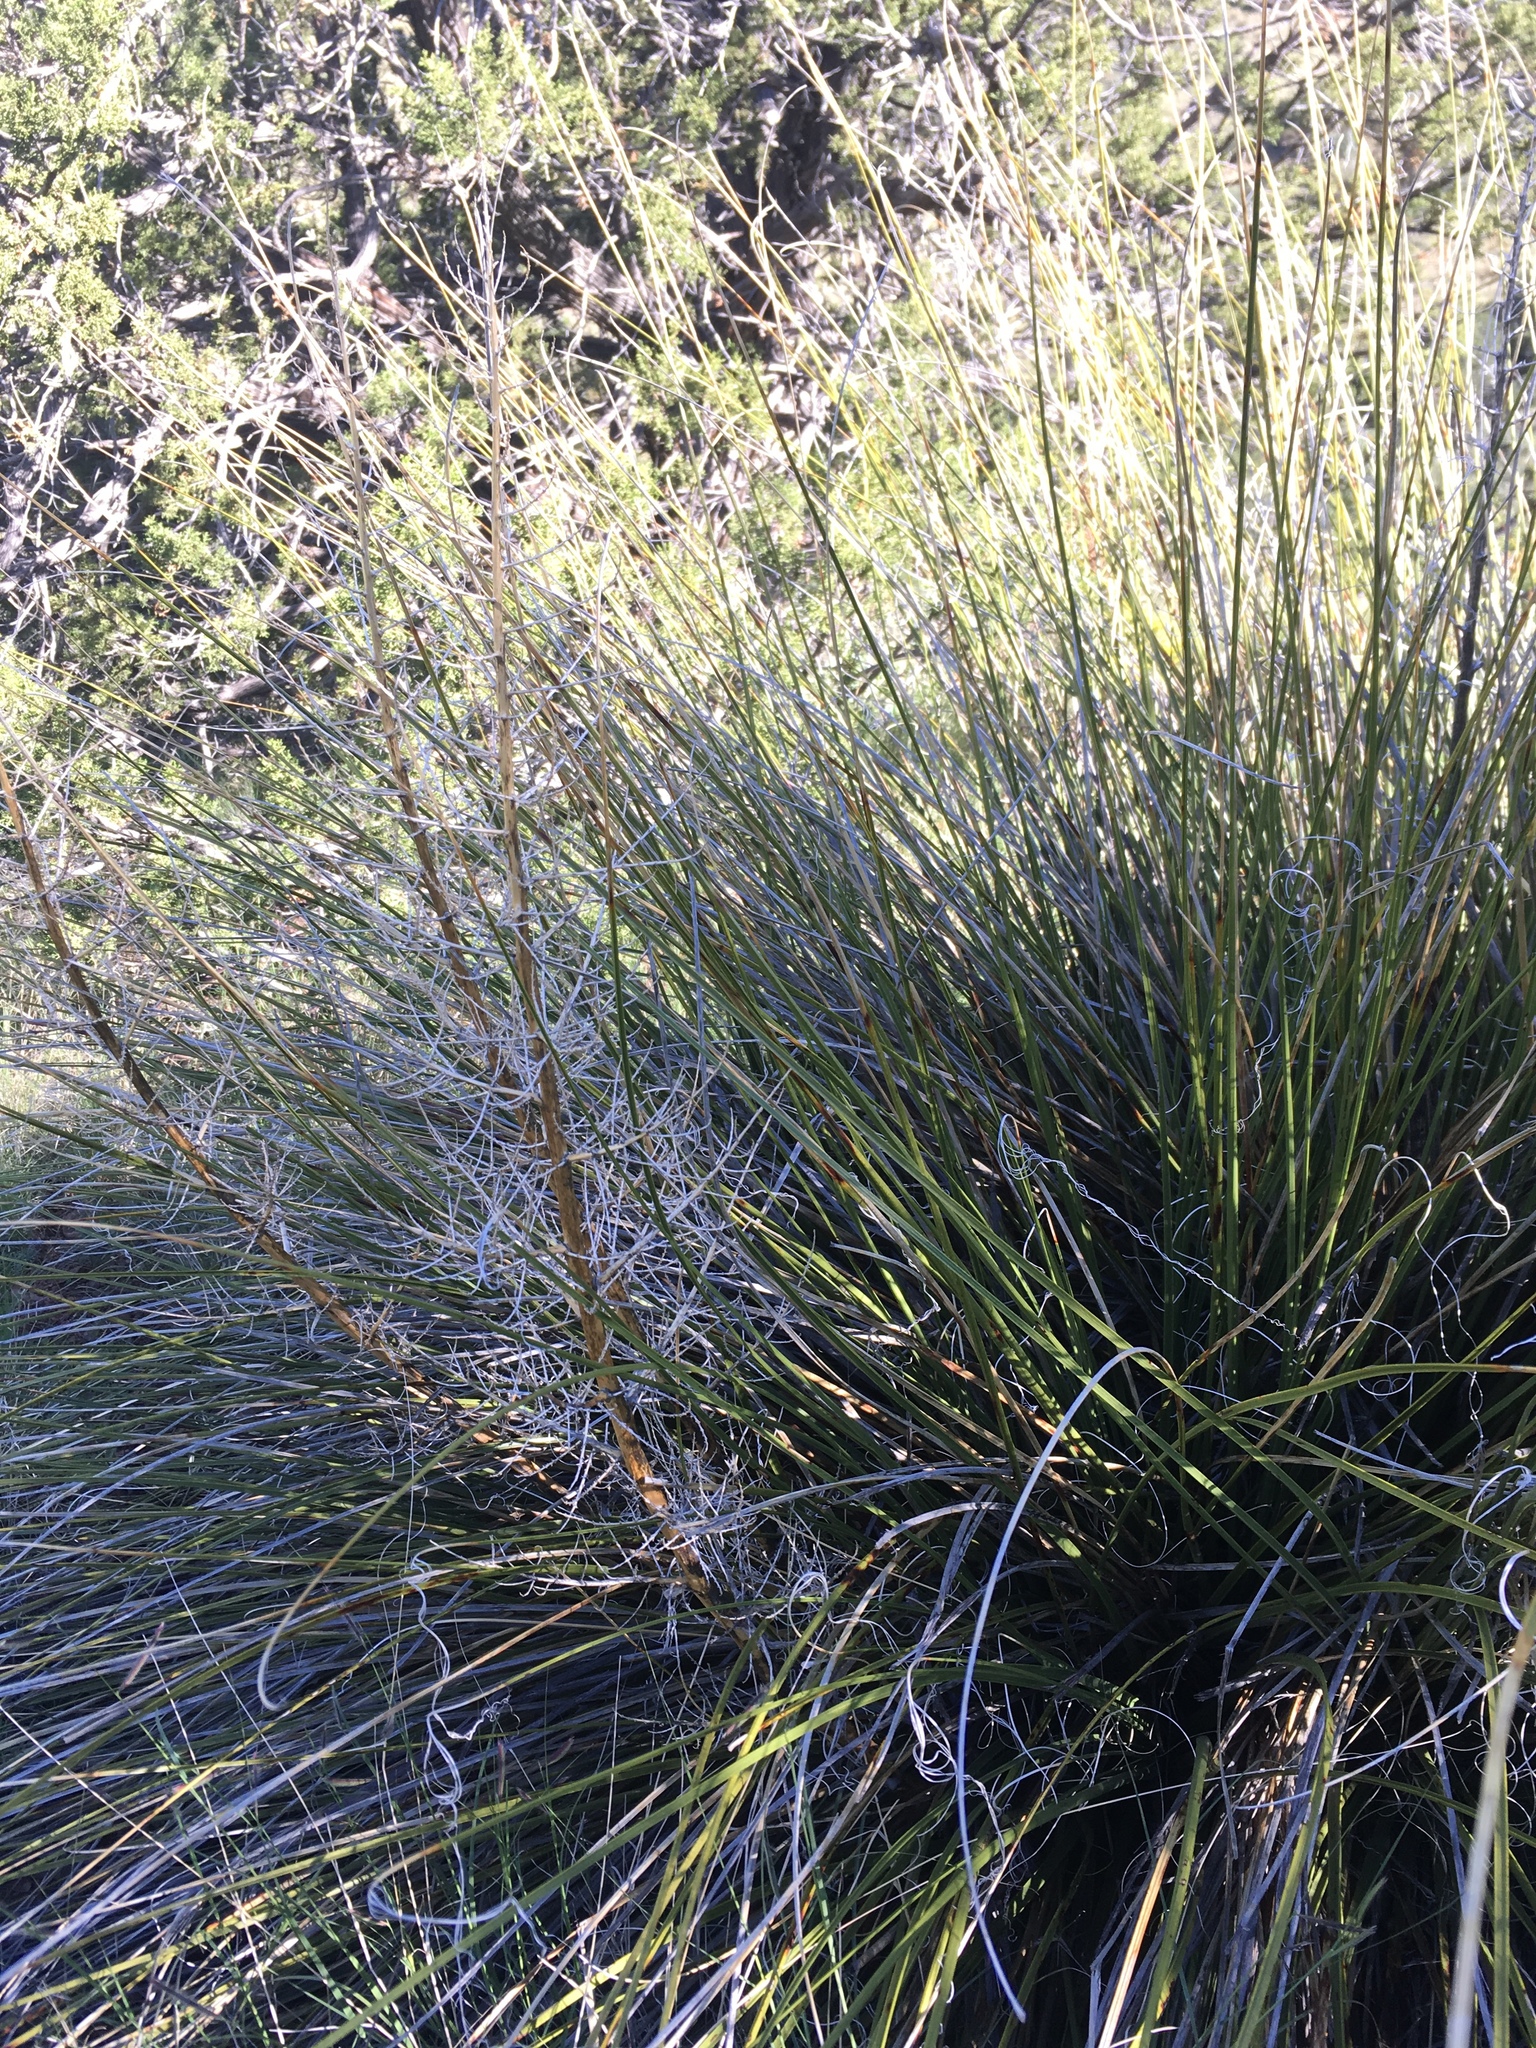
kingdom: Plantae
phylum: Tracheophyta
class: Liliopsida
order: Asparagales
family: Asparagaceae
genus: Nolina
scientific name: Nolina texana
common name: Texas sacahuiste
